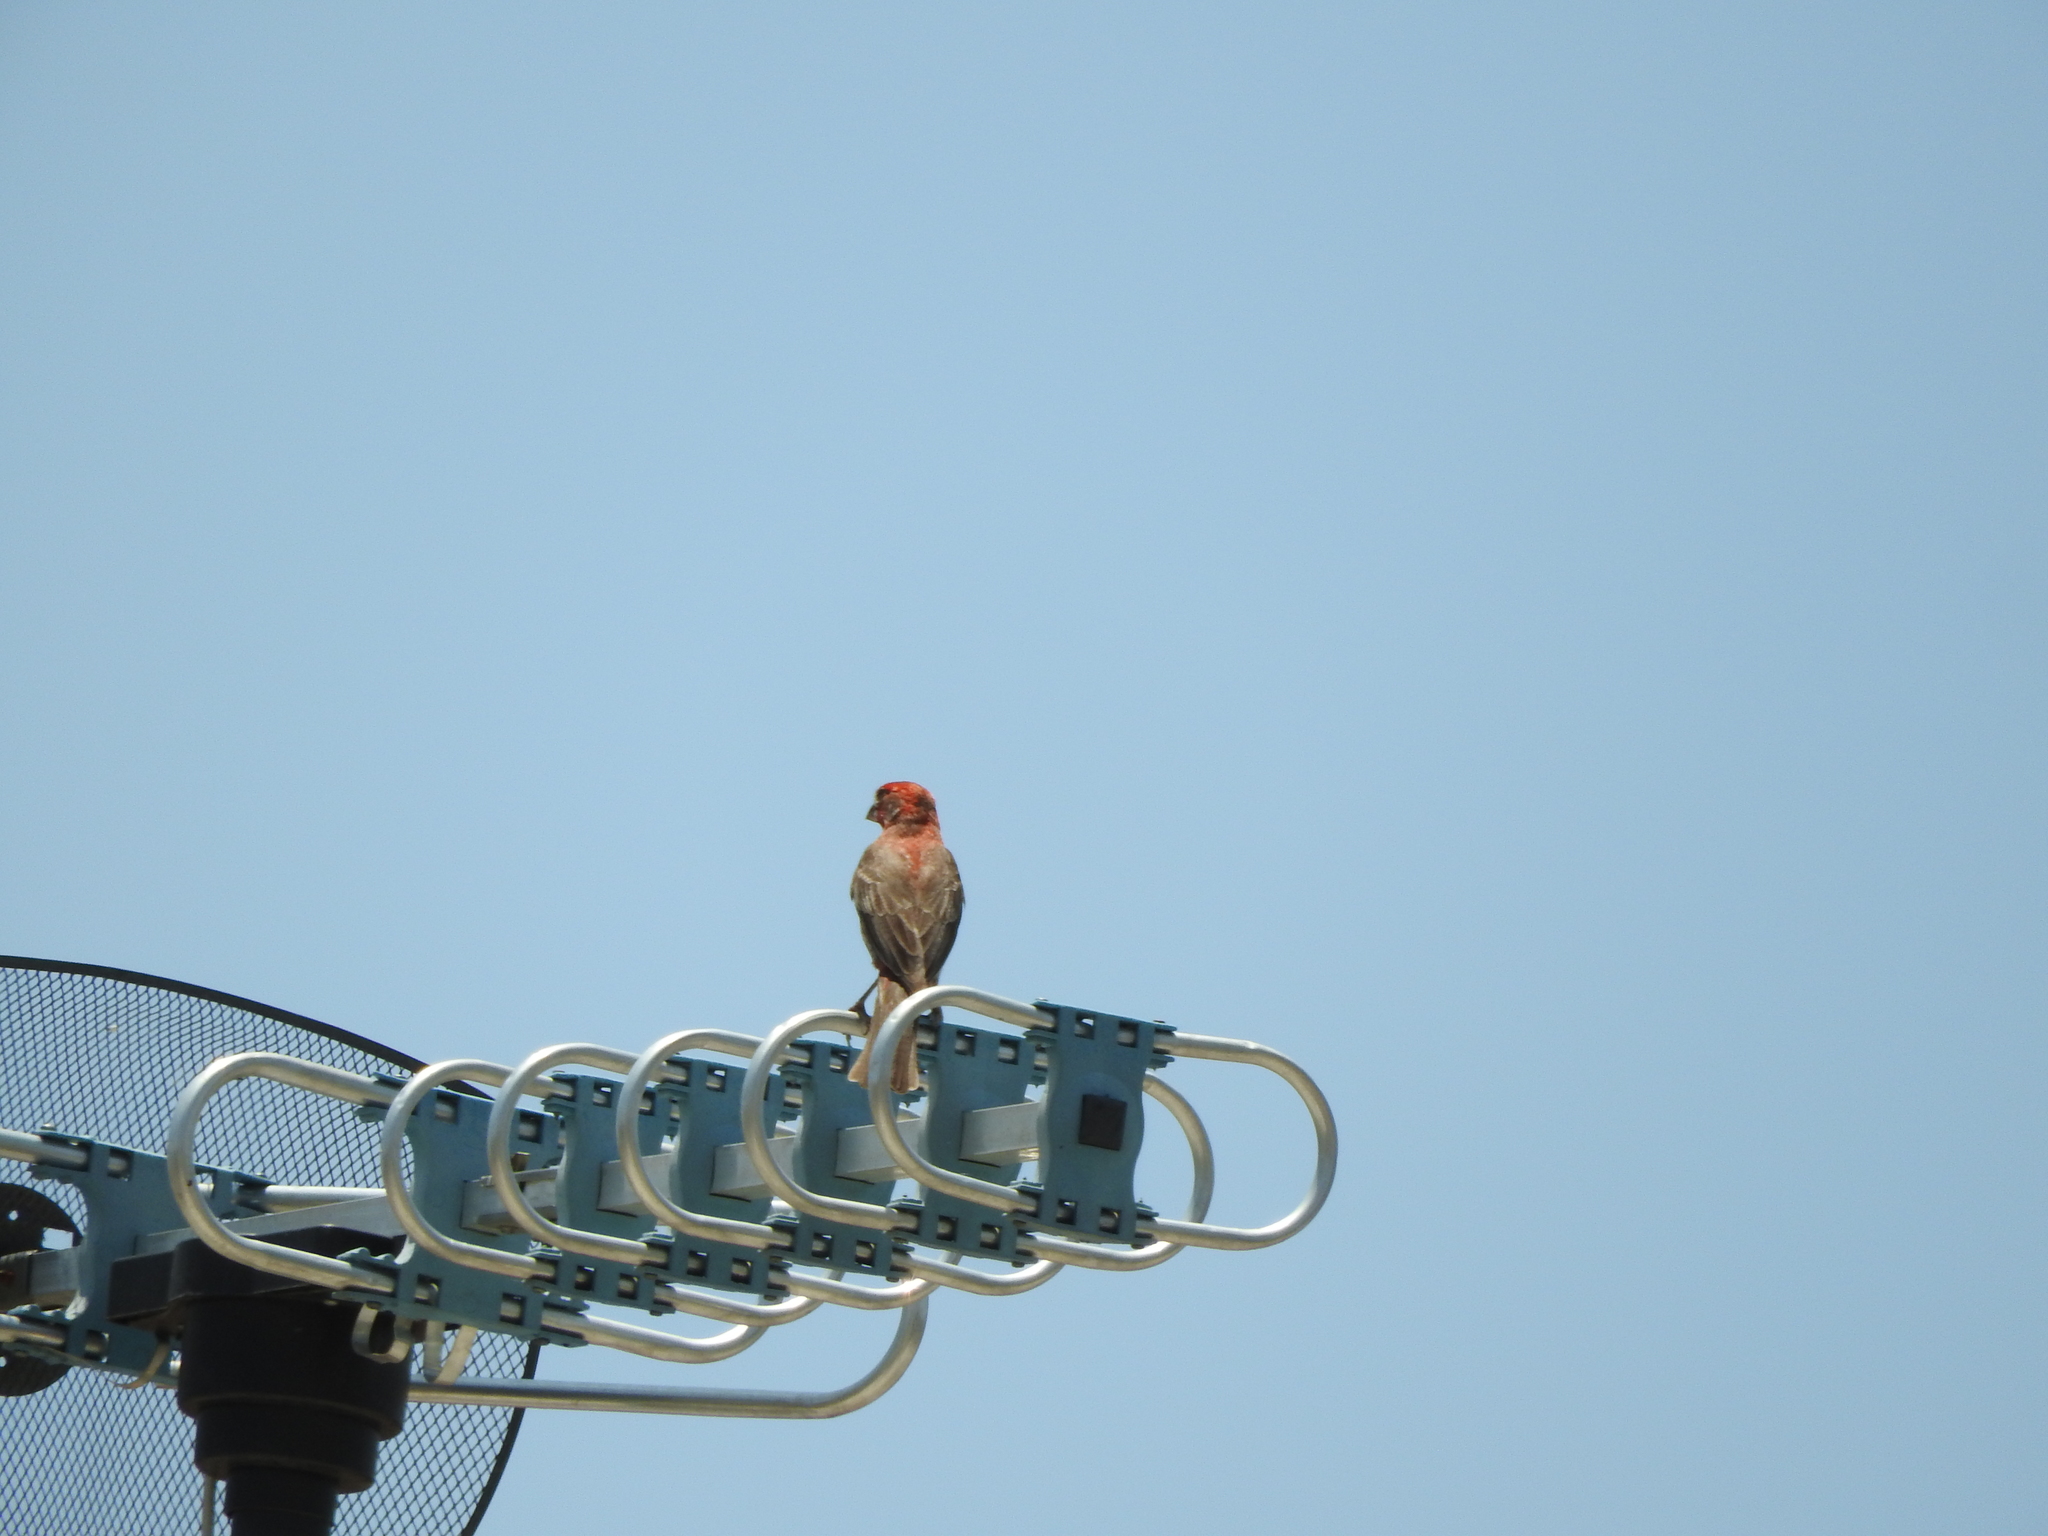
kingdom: Animalia
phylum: Chordata
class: Aves
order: Passeriformes
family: Fringillidae
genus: Haemorhous
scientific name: Haemorhous mexicanus
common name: House finch
